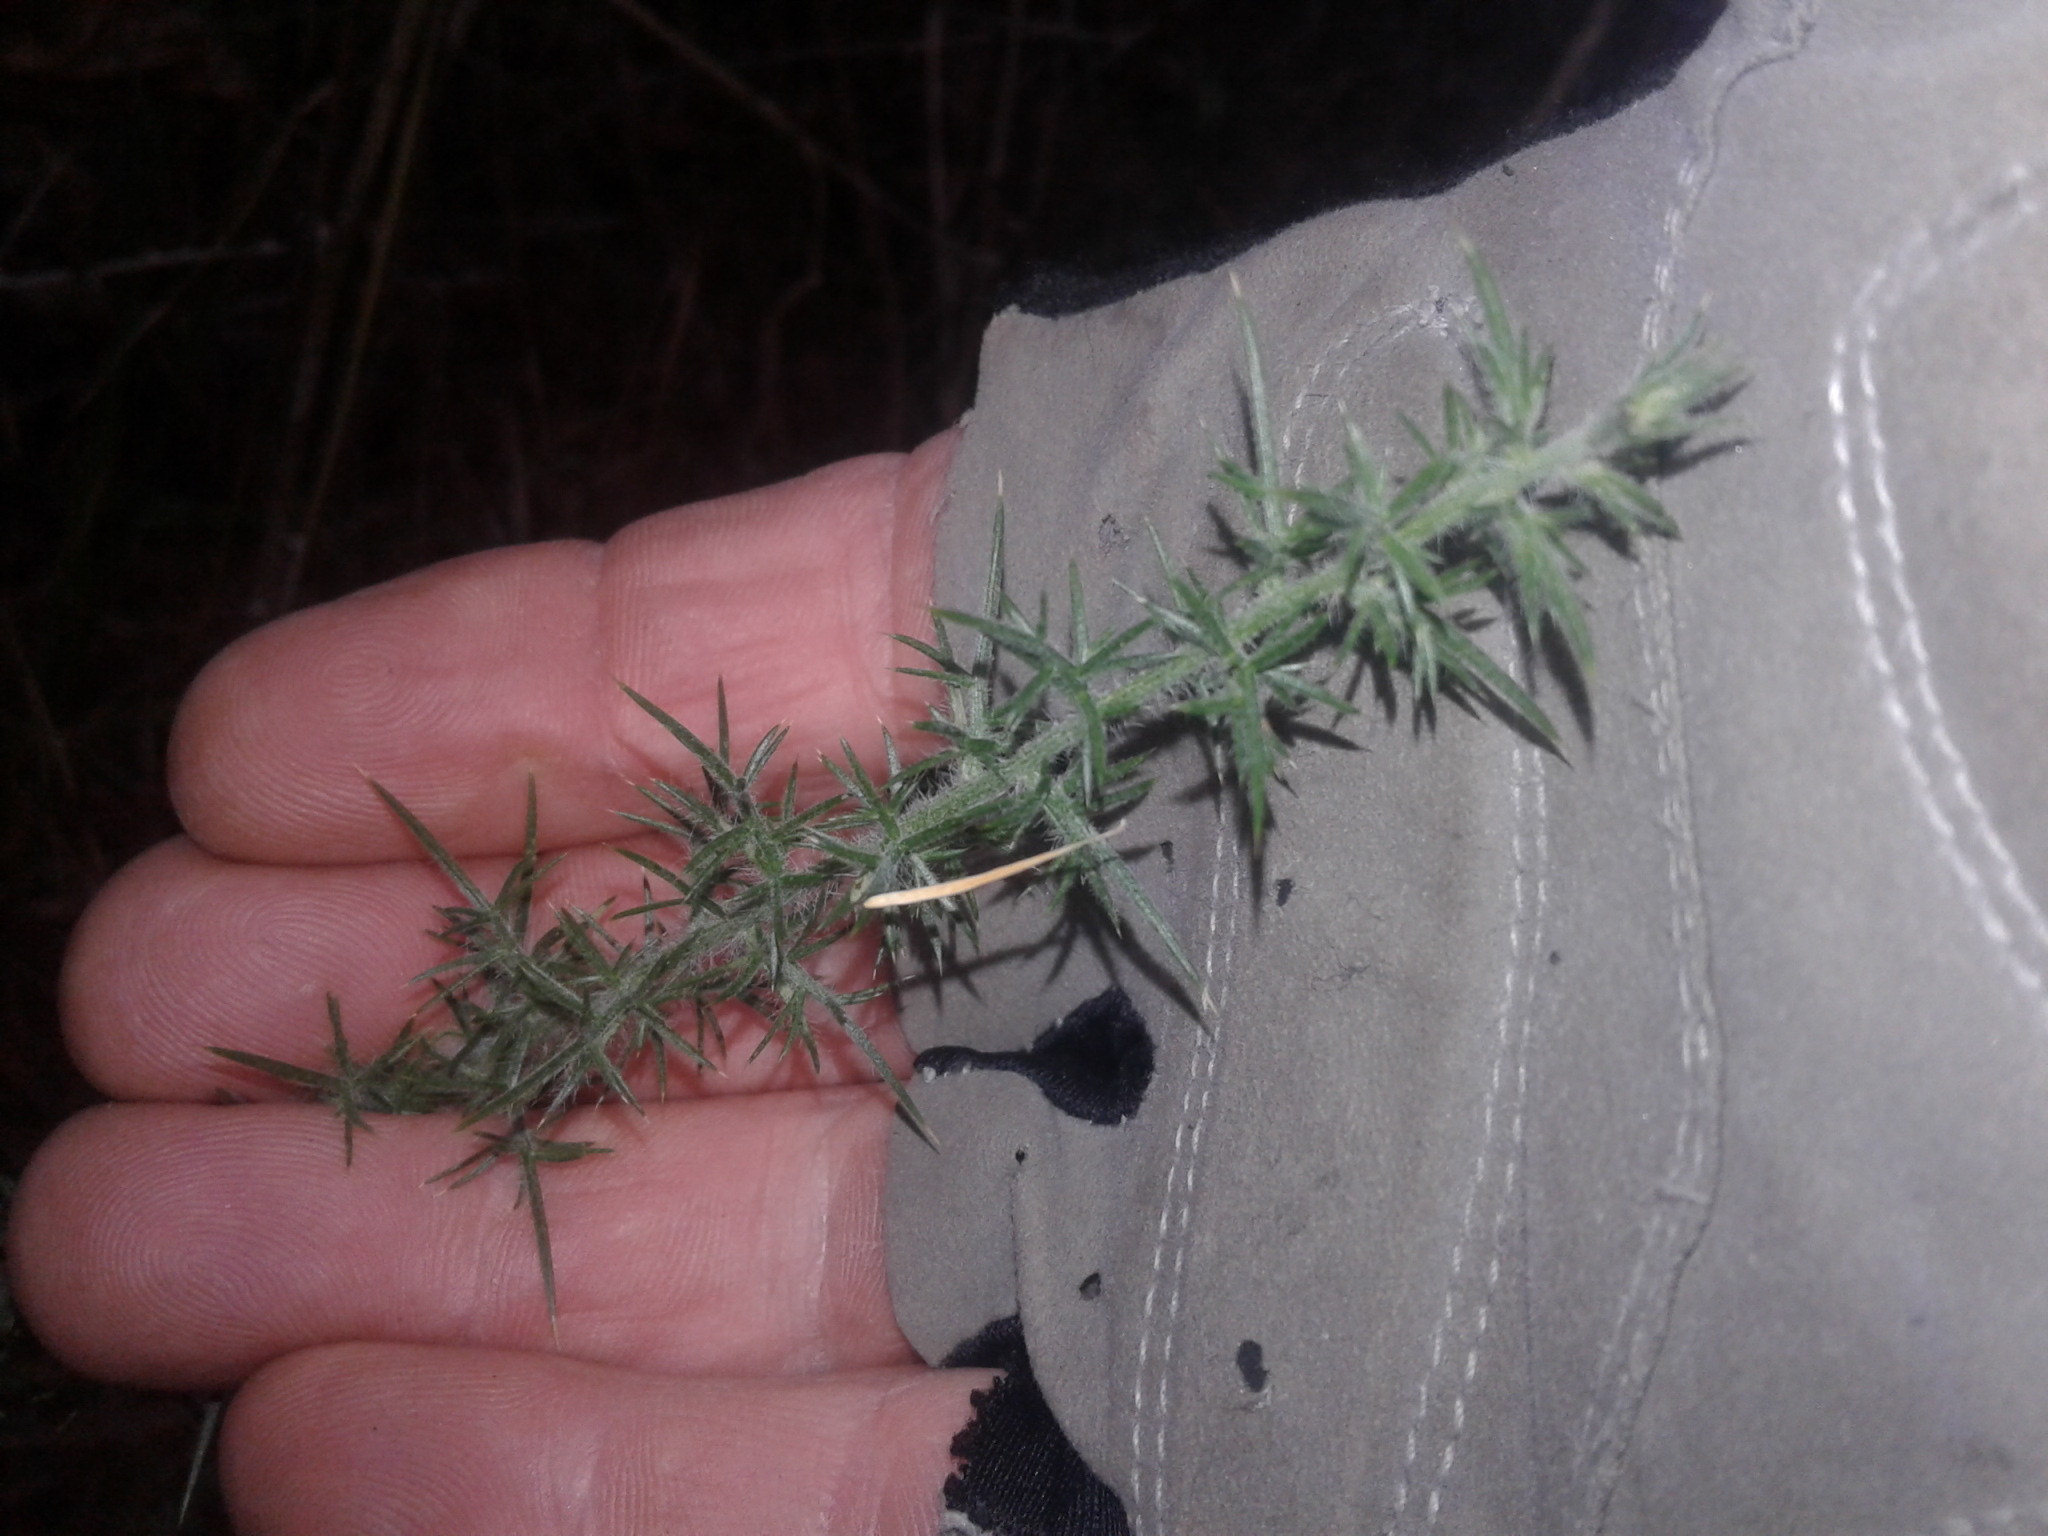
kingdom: Plantae
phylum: Tracheophyta
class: Magnoliopsida
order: Fabales
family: Fabaceae
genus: Ulex
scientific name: Ulex europaeus
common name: Common gorse
